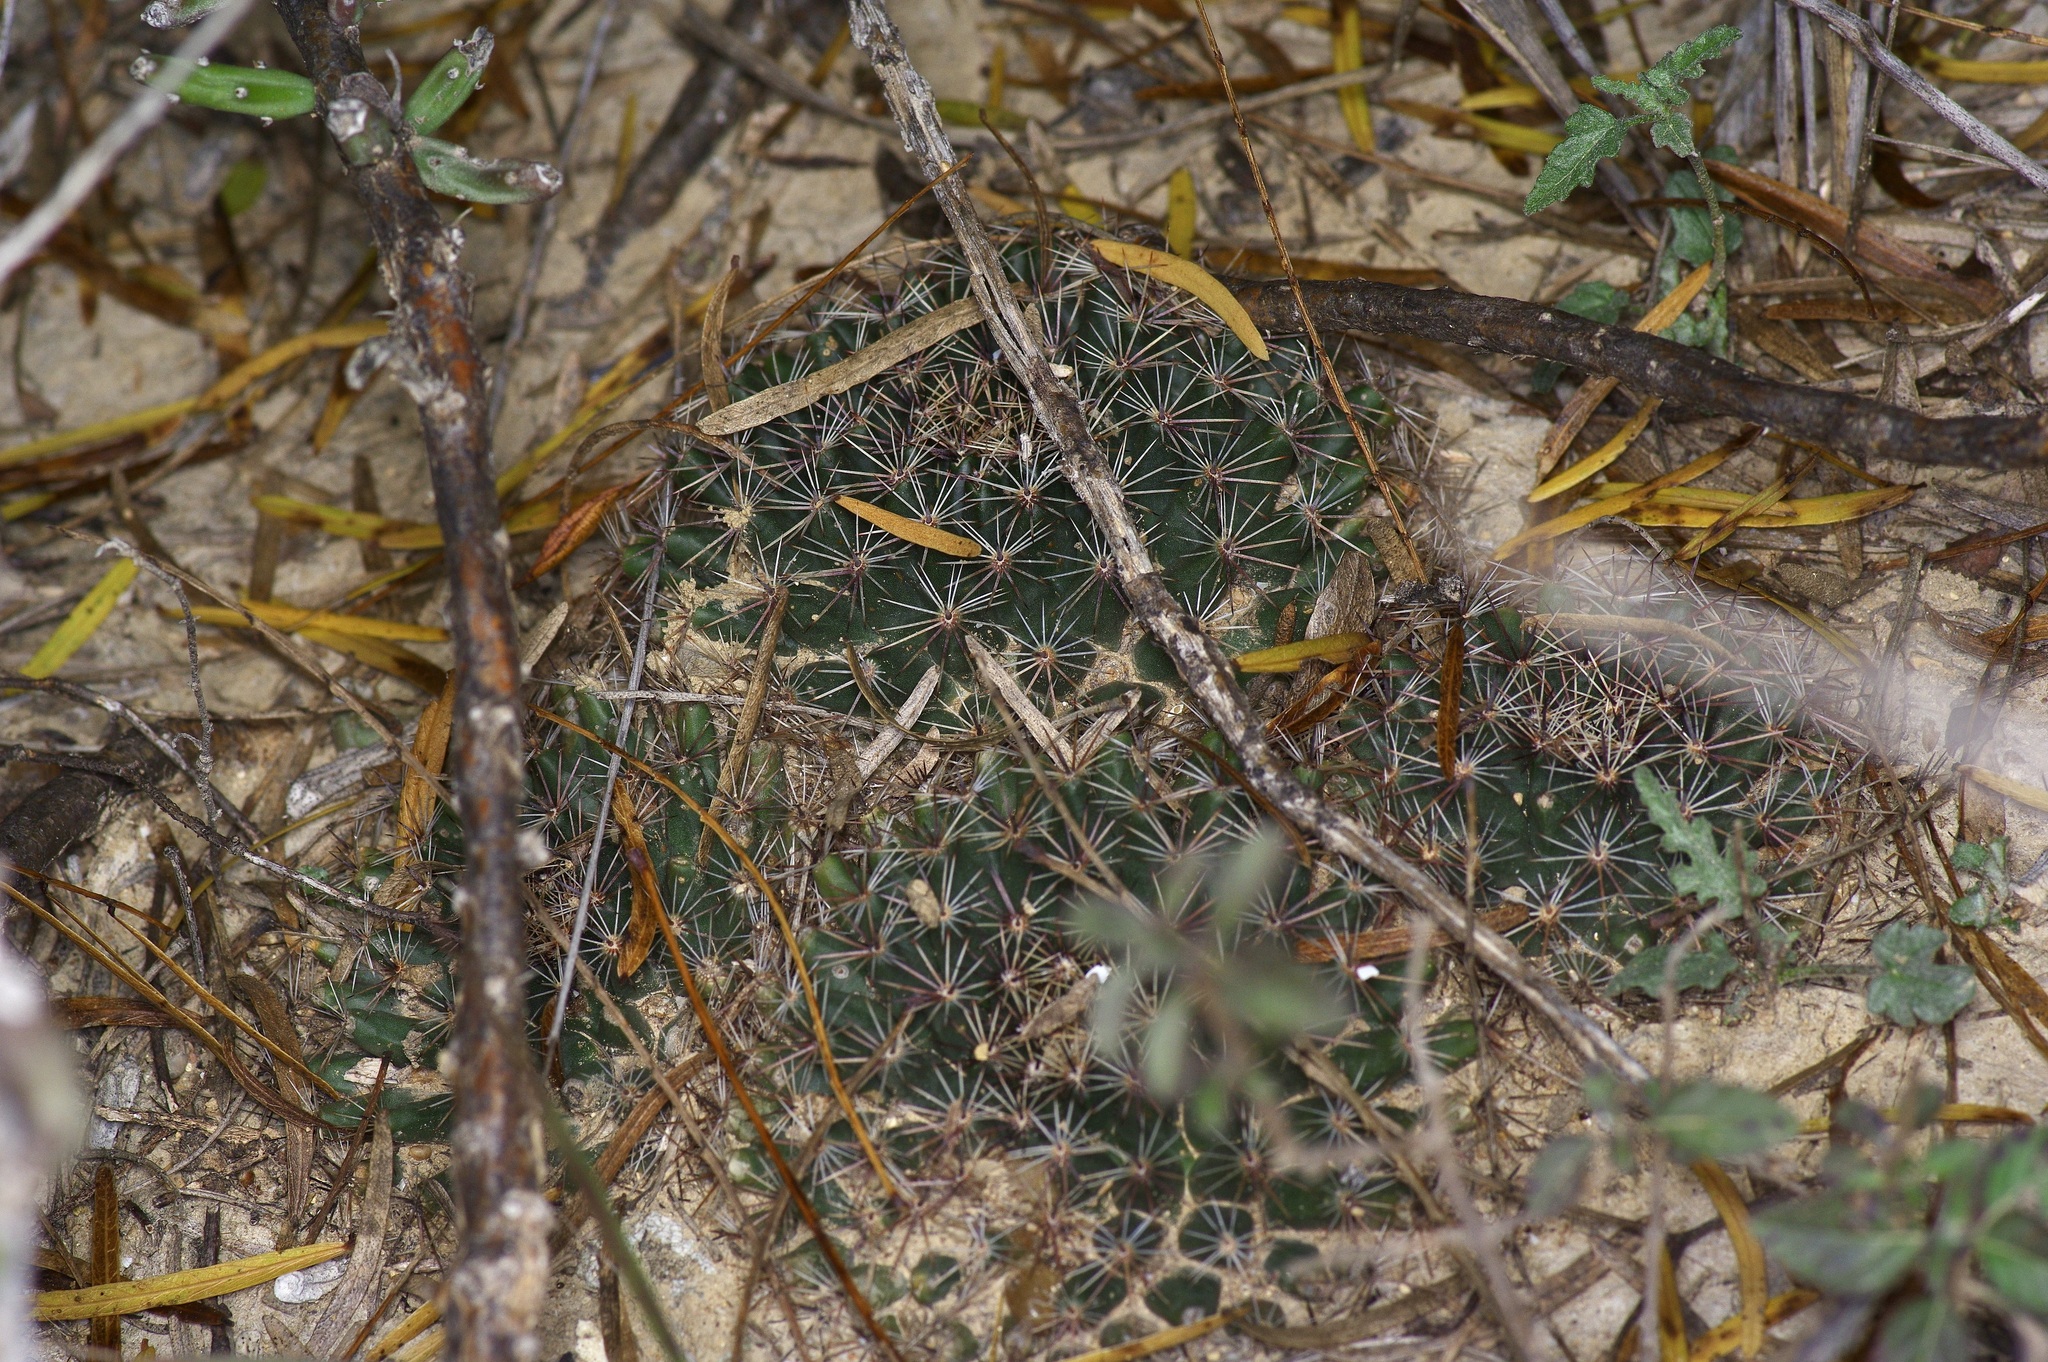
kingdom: Plantae
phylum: Tracheophyta
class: Magnoliopsida
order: Caryophyllales
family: Cactaceae
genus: Mammillaria
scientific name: Mammillaria heyderi
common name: Little nipple cactus
